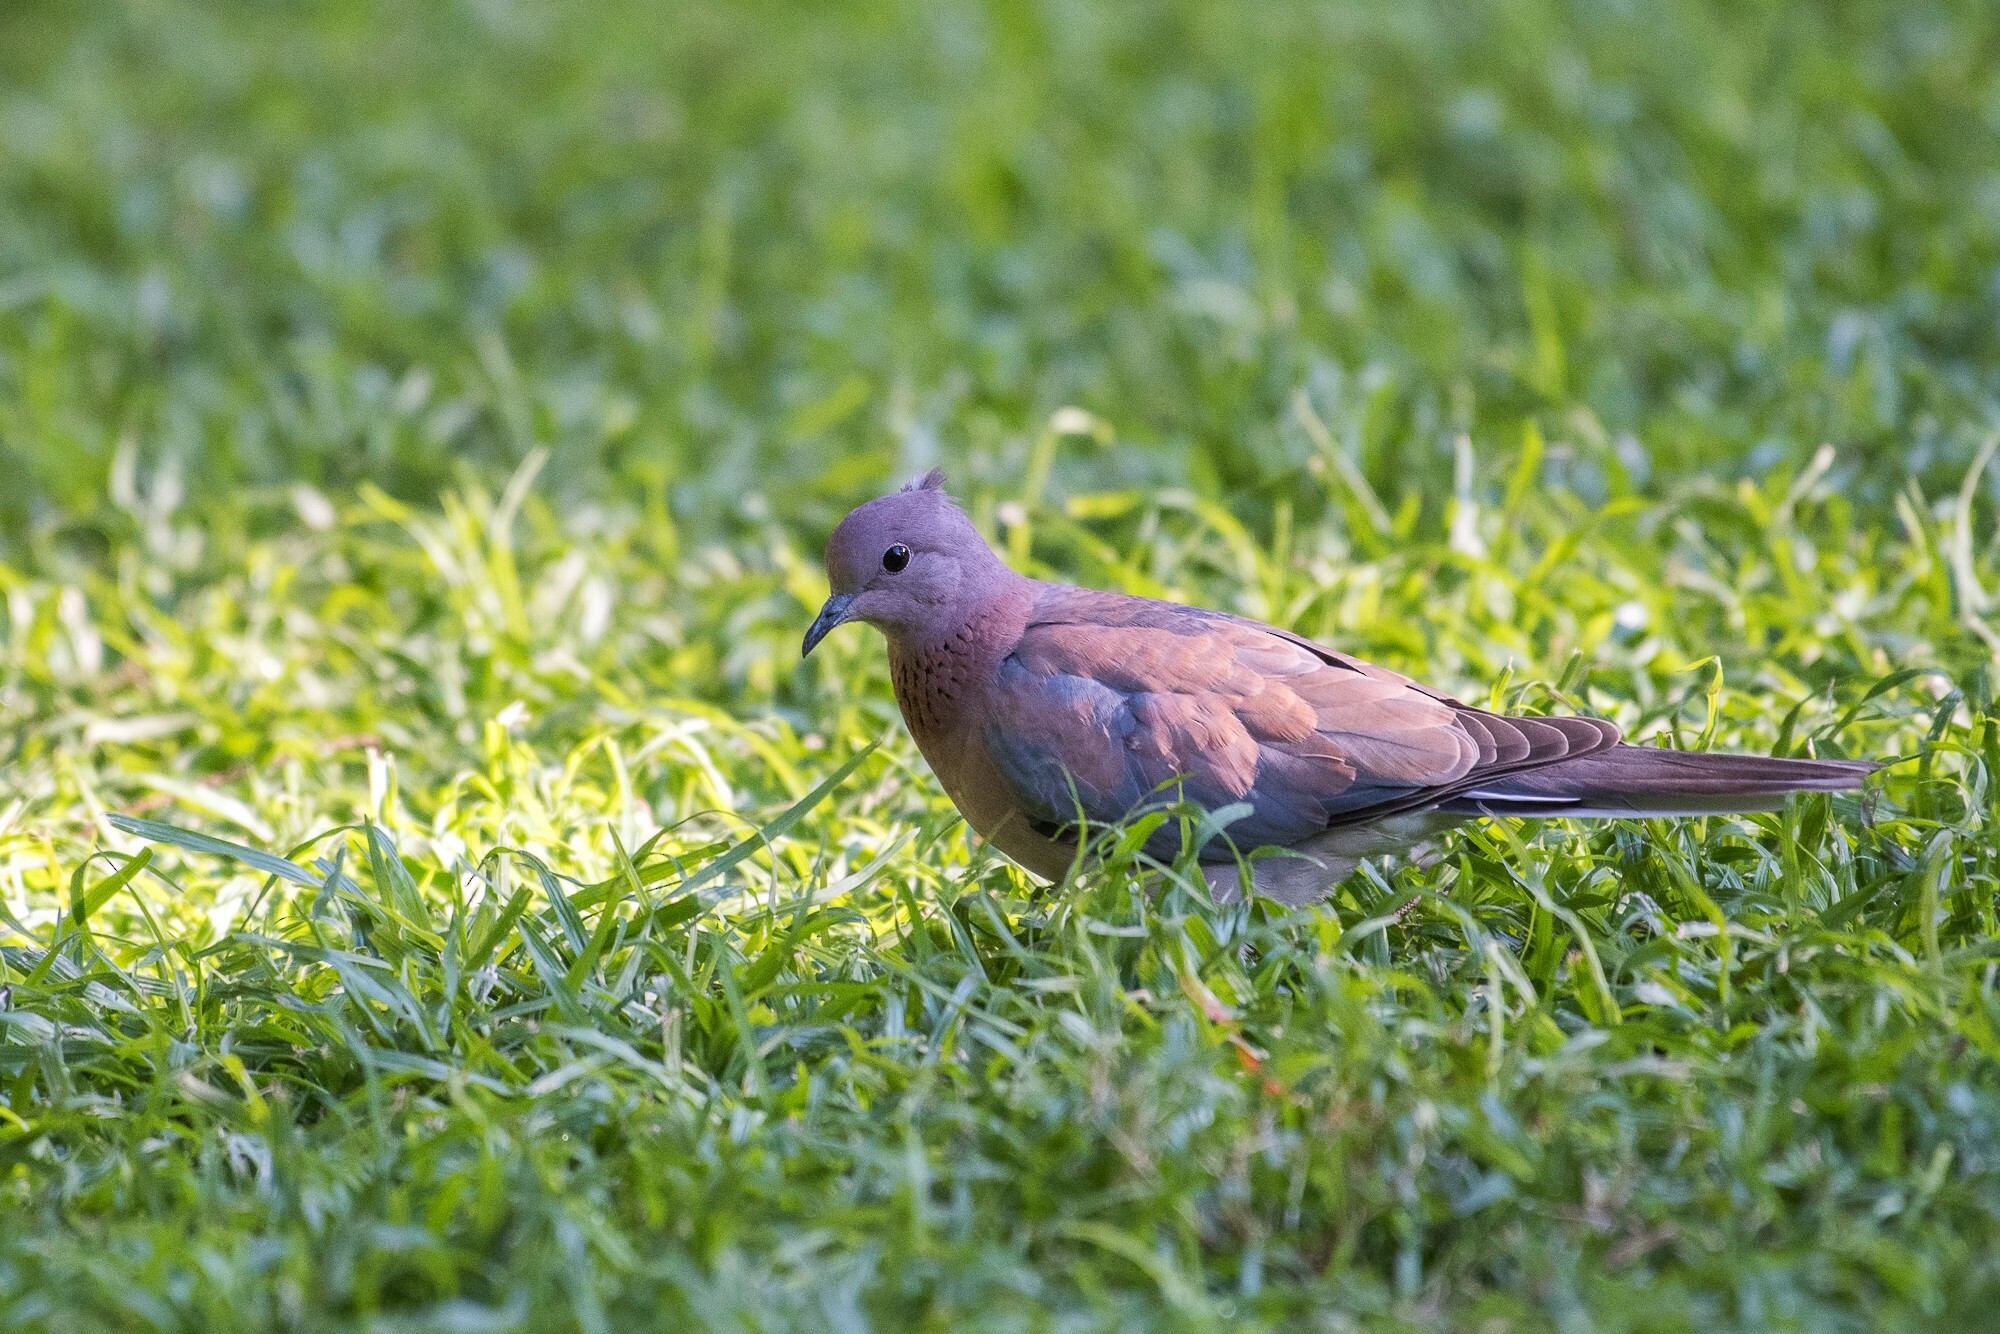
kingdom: Animalia
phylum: Chordata
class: Aves
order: Columbiformes
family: Columbidae
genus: Spilopelia
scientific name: Spilopelia senegalensis
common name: Laughing dove
